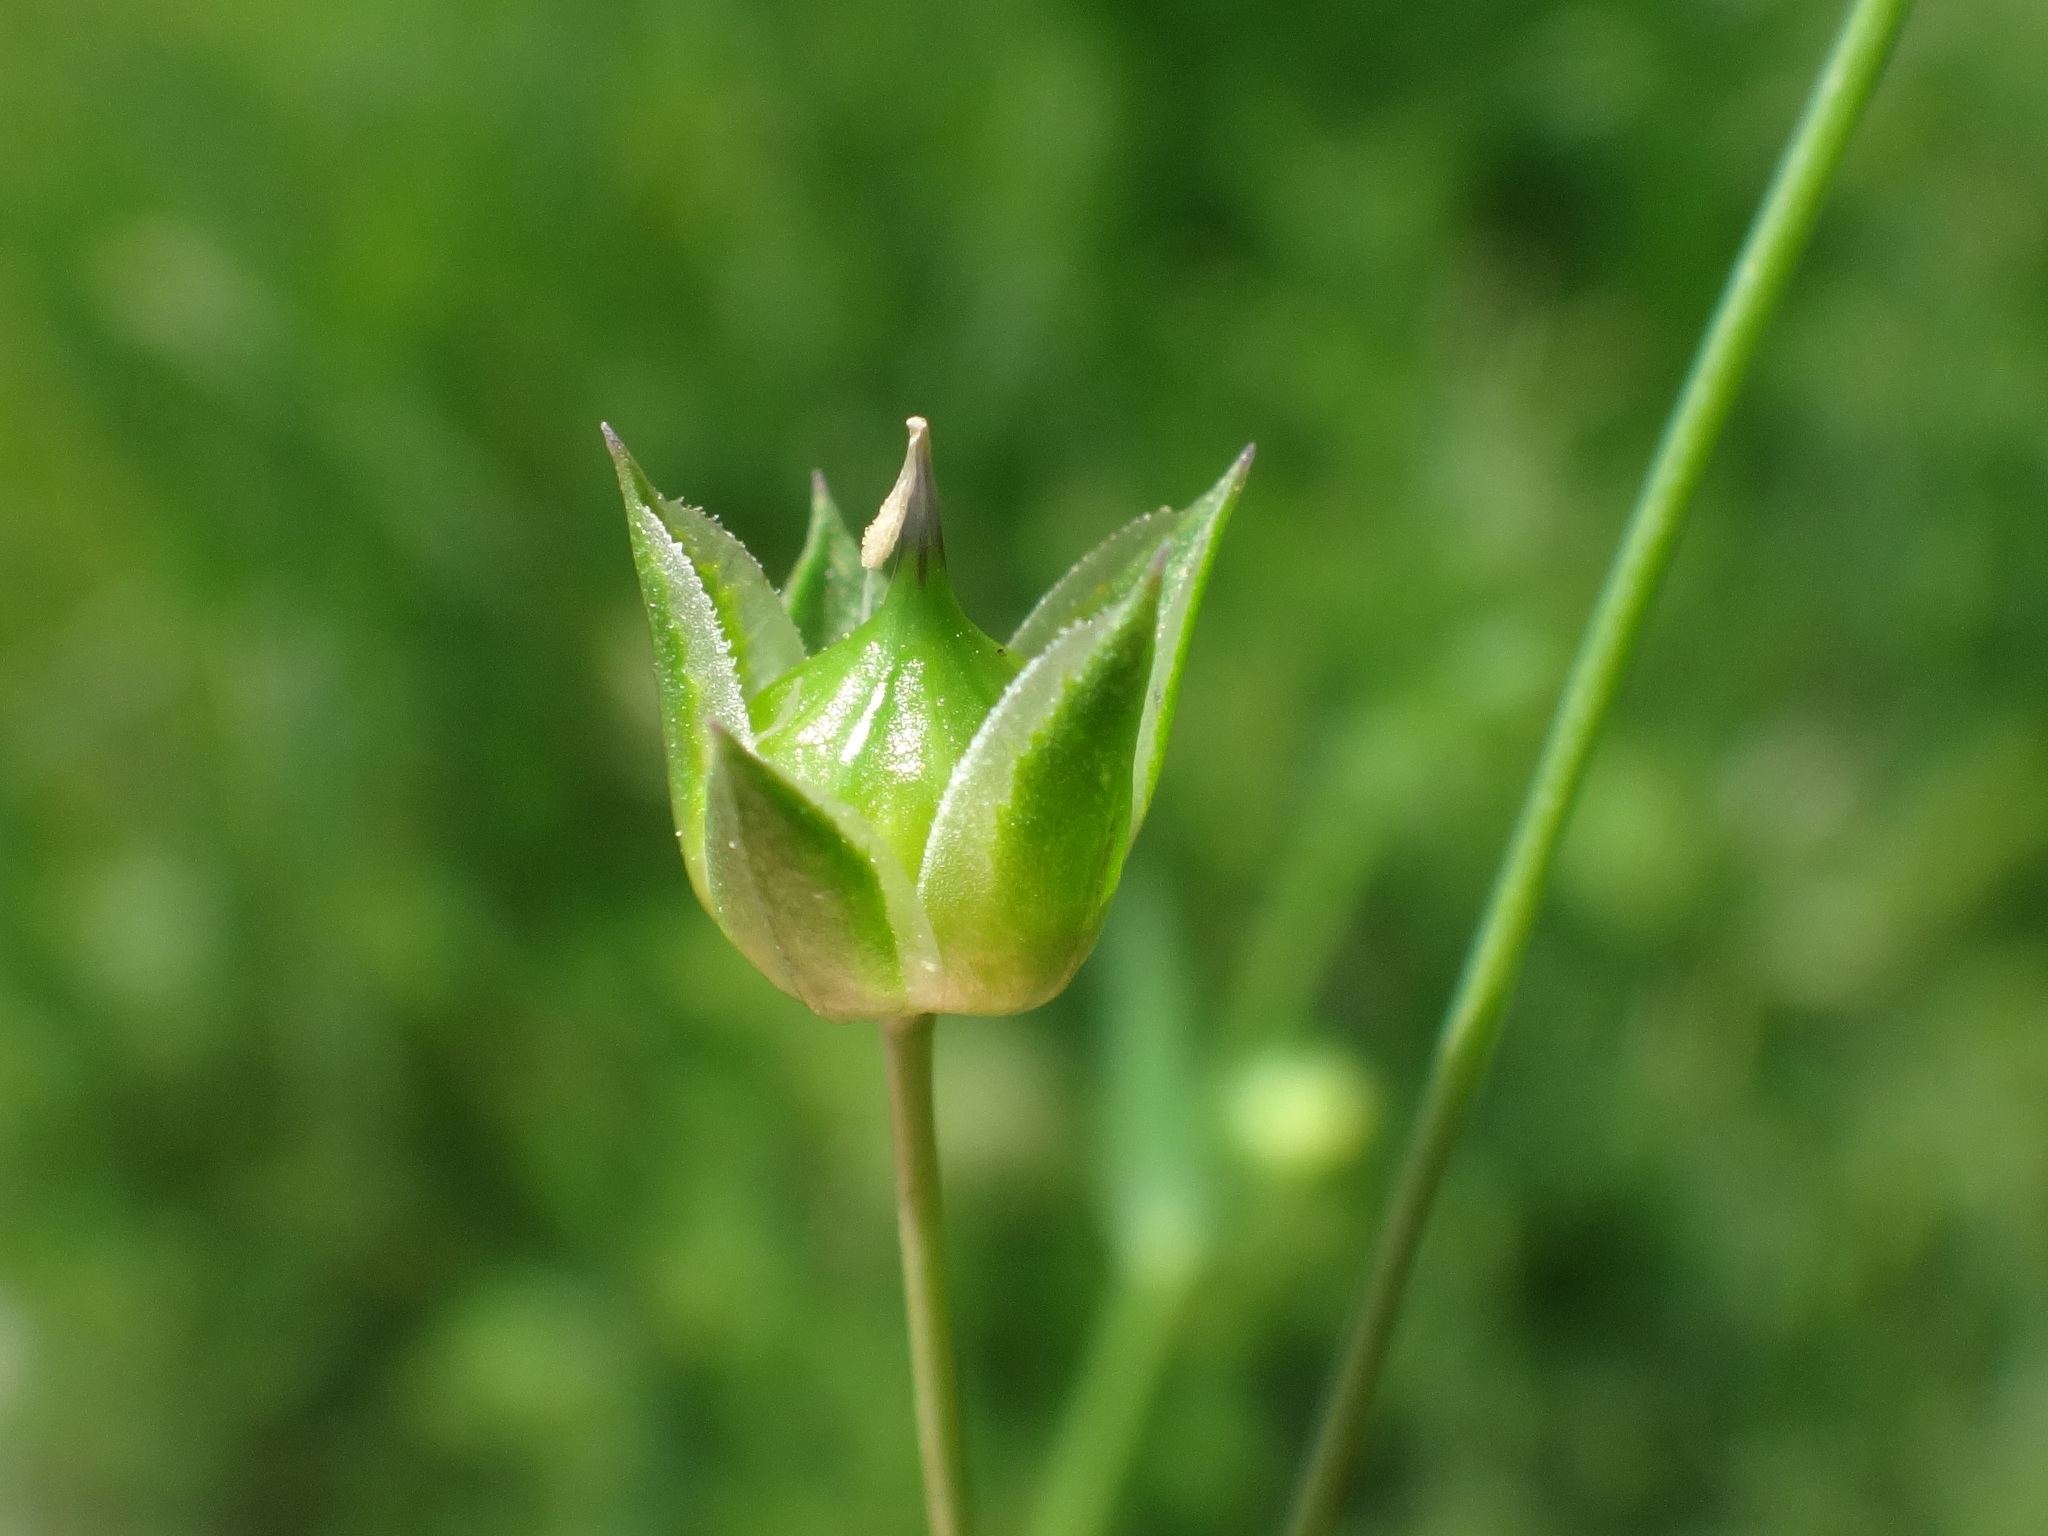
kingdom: Plantae
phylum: Tracheophyta
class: Magnoliopsida
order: Malpighiales
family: Linaceae
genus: Linum
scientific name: Linum bienne
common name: Pale flax
